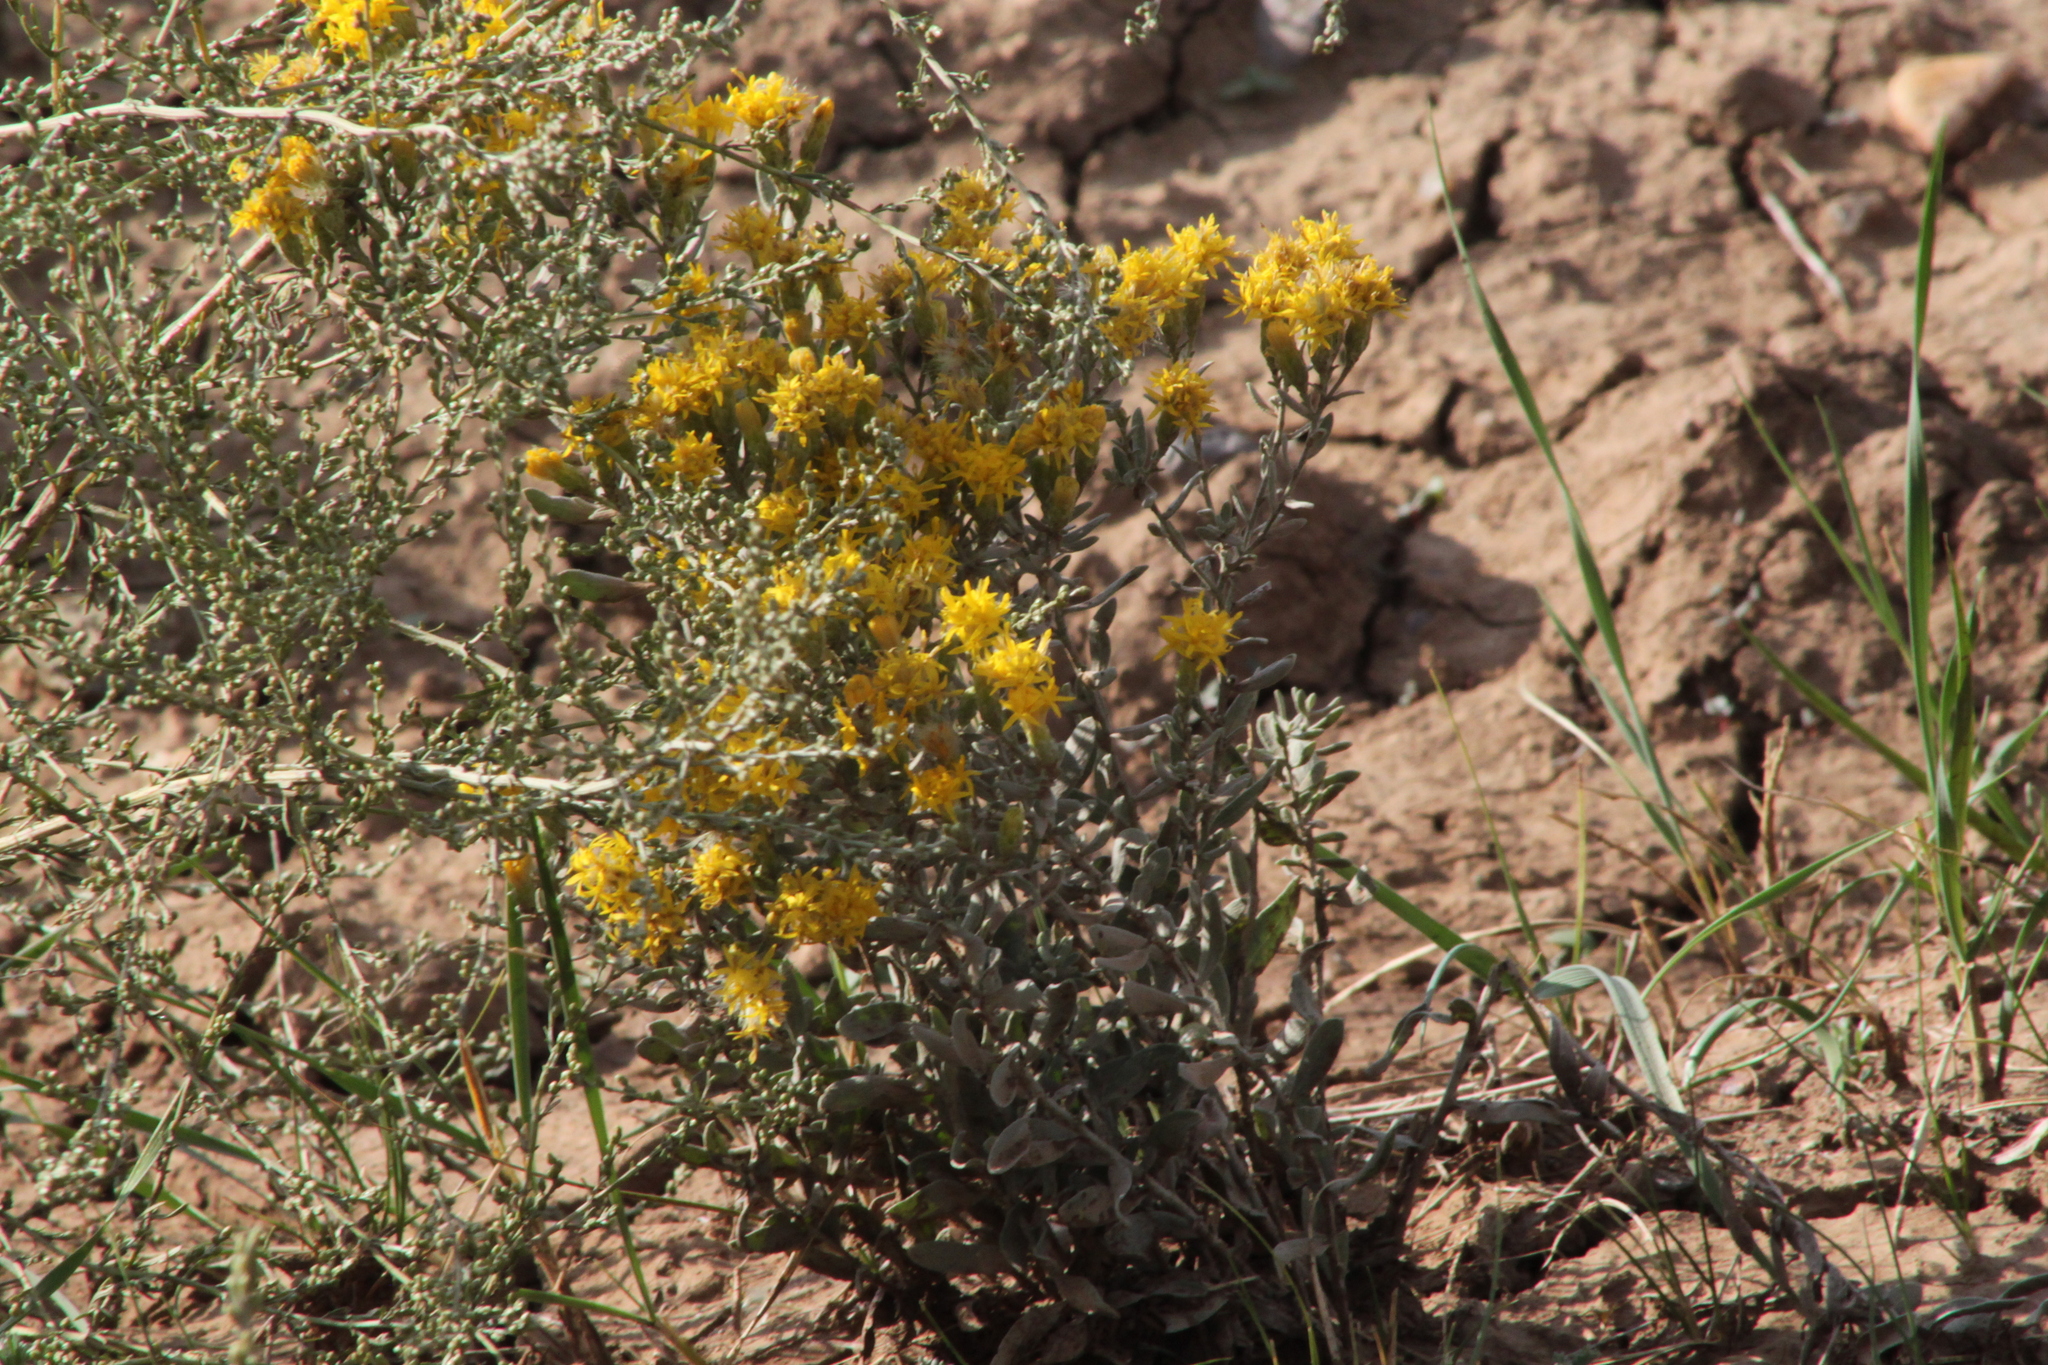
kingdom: Plantae
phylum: Tracheophyta
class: Magnoliopsida
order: Asterales
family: Asteraceae
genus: Galatella
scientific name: Galatella villosa
